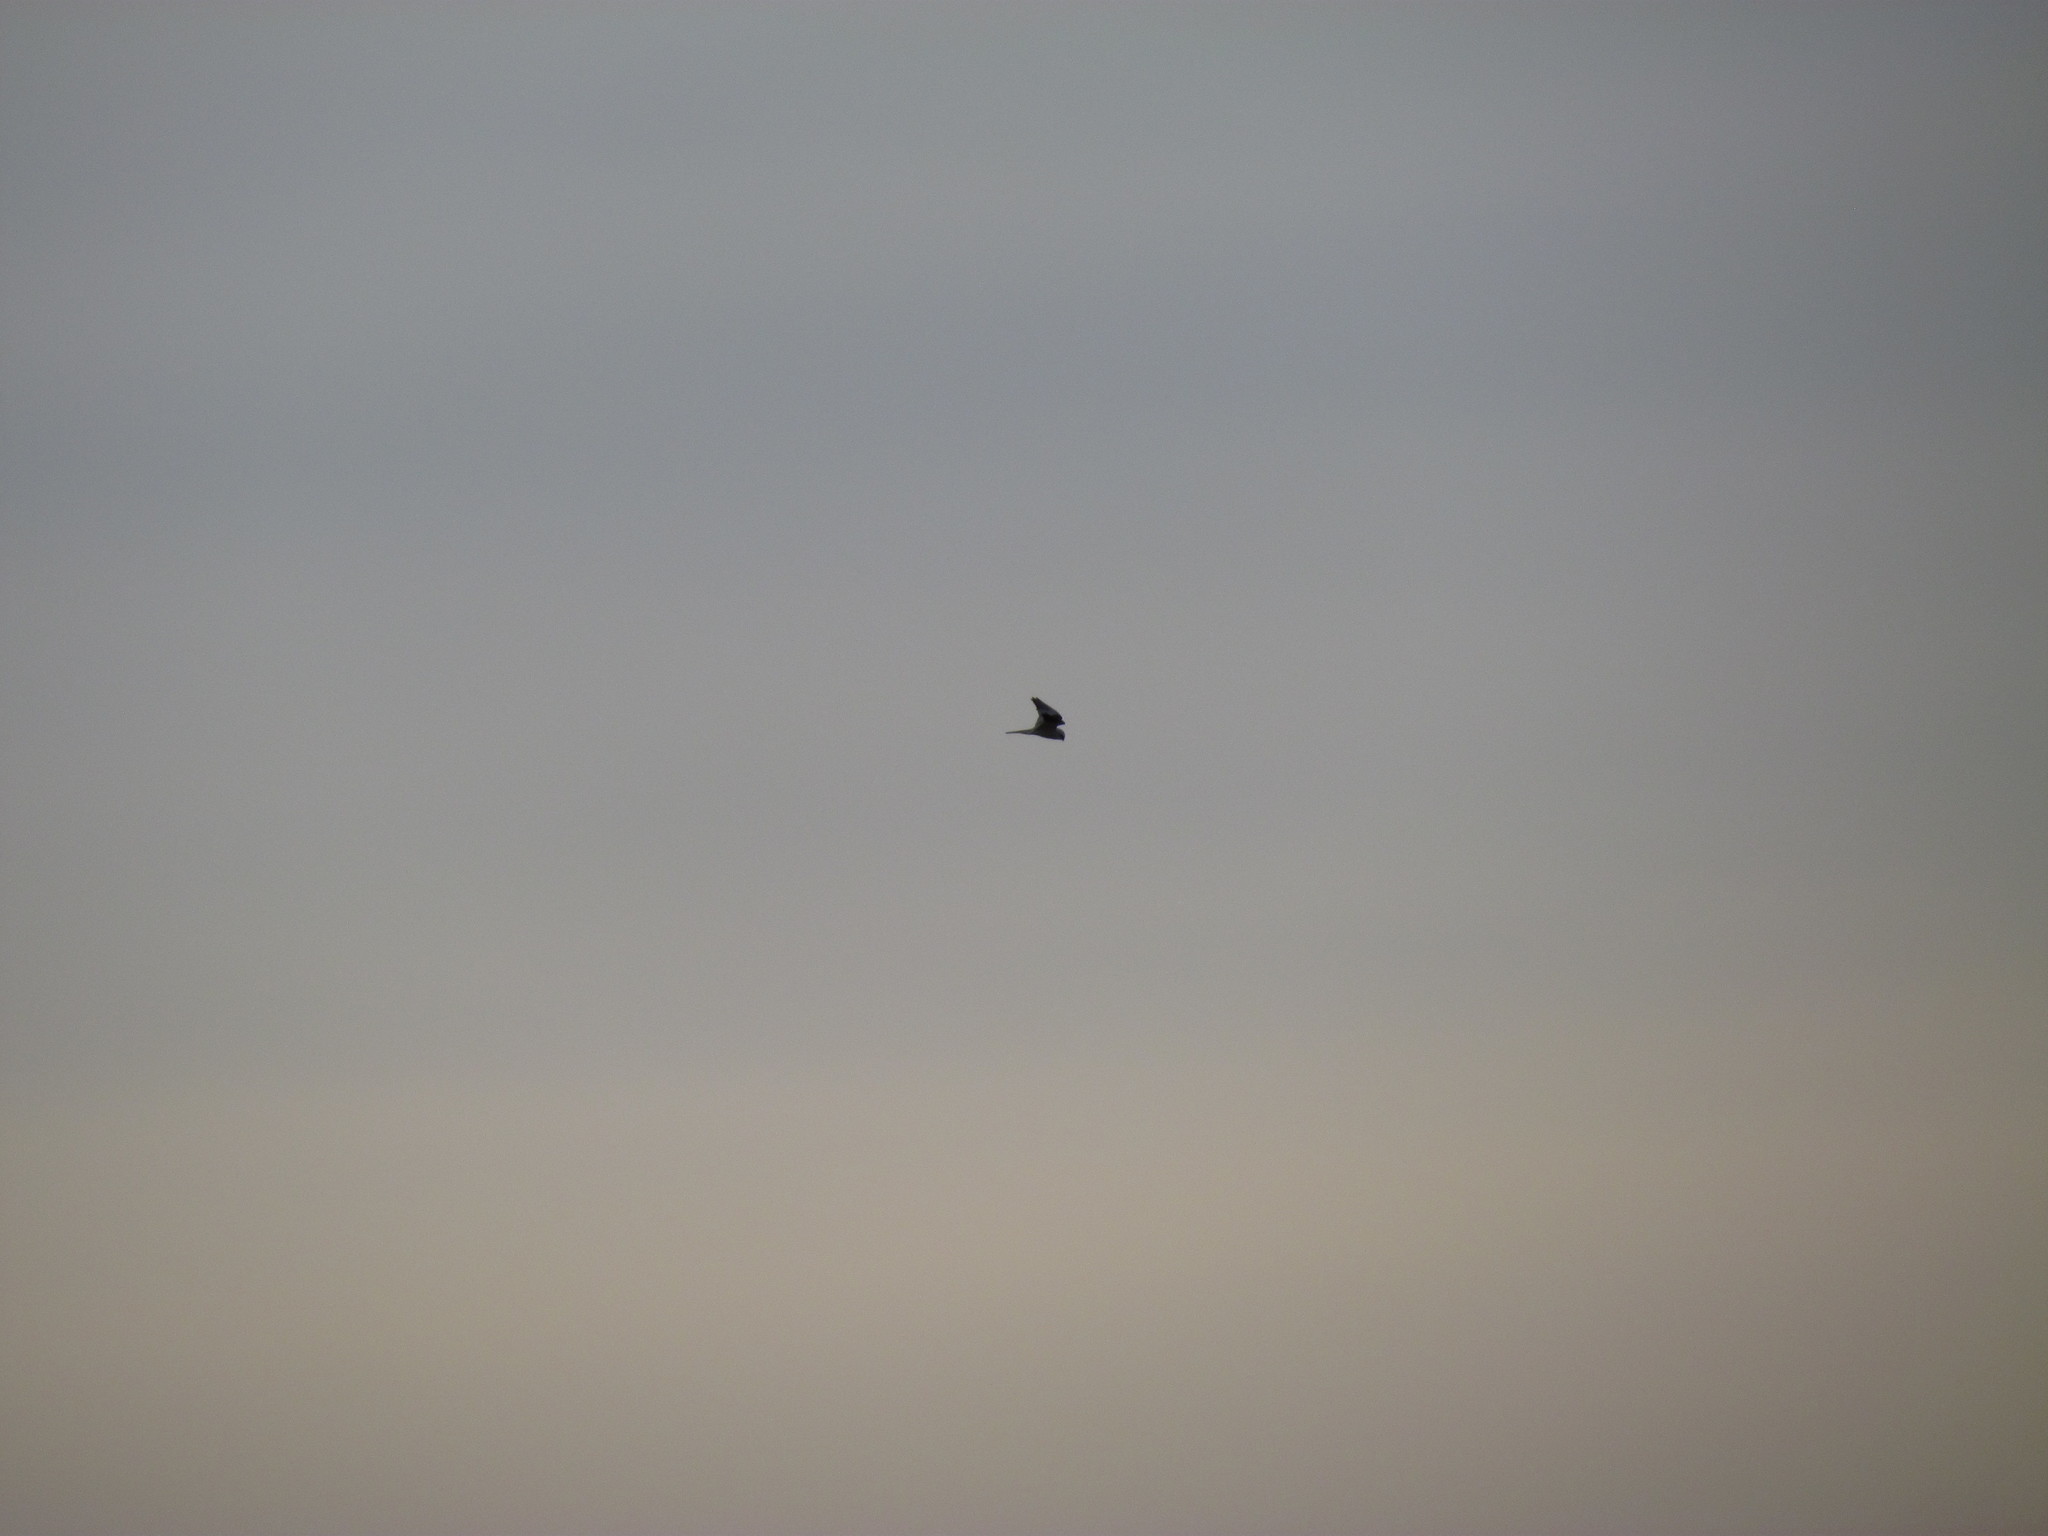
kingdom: Animalia
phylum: Chordata
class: Aves
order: Accipitriformes
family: Accipitridae
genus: Elanus
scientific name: Elanus leucurus
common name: White-tailed kite
